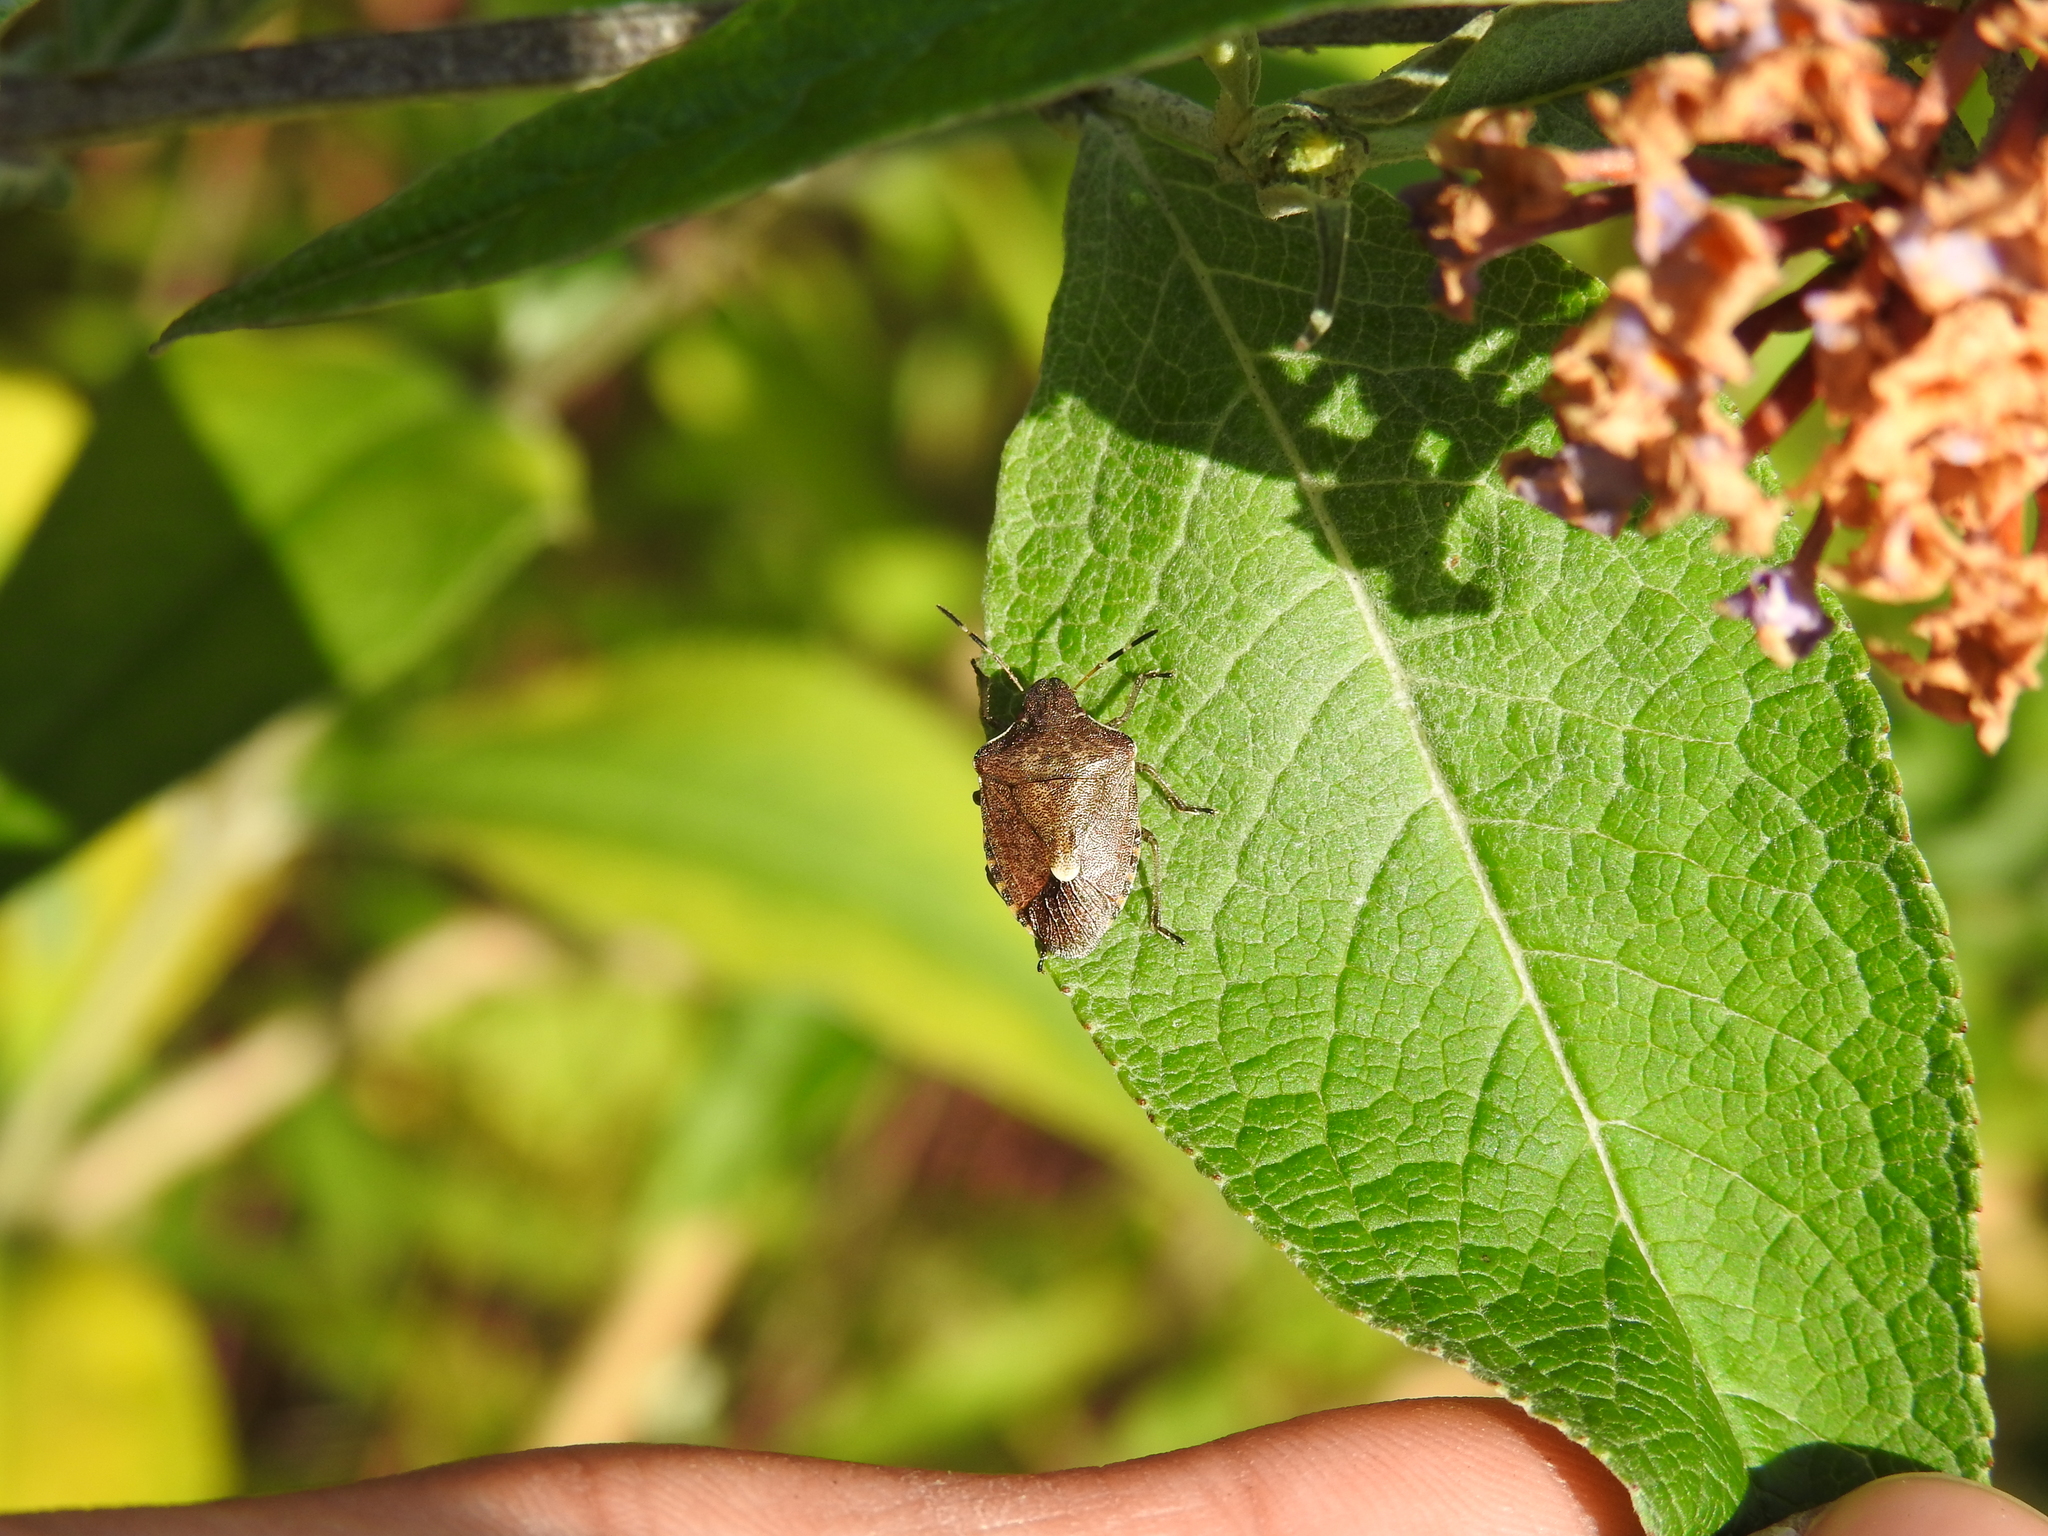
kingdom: Animalia
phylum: Arthropoda
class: Insecta
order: Hemiptera
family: Pentatomidae
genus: Holcostethus
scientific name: Holcostethus strictus
